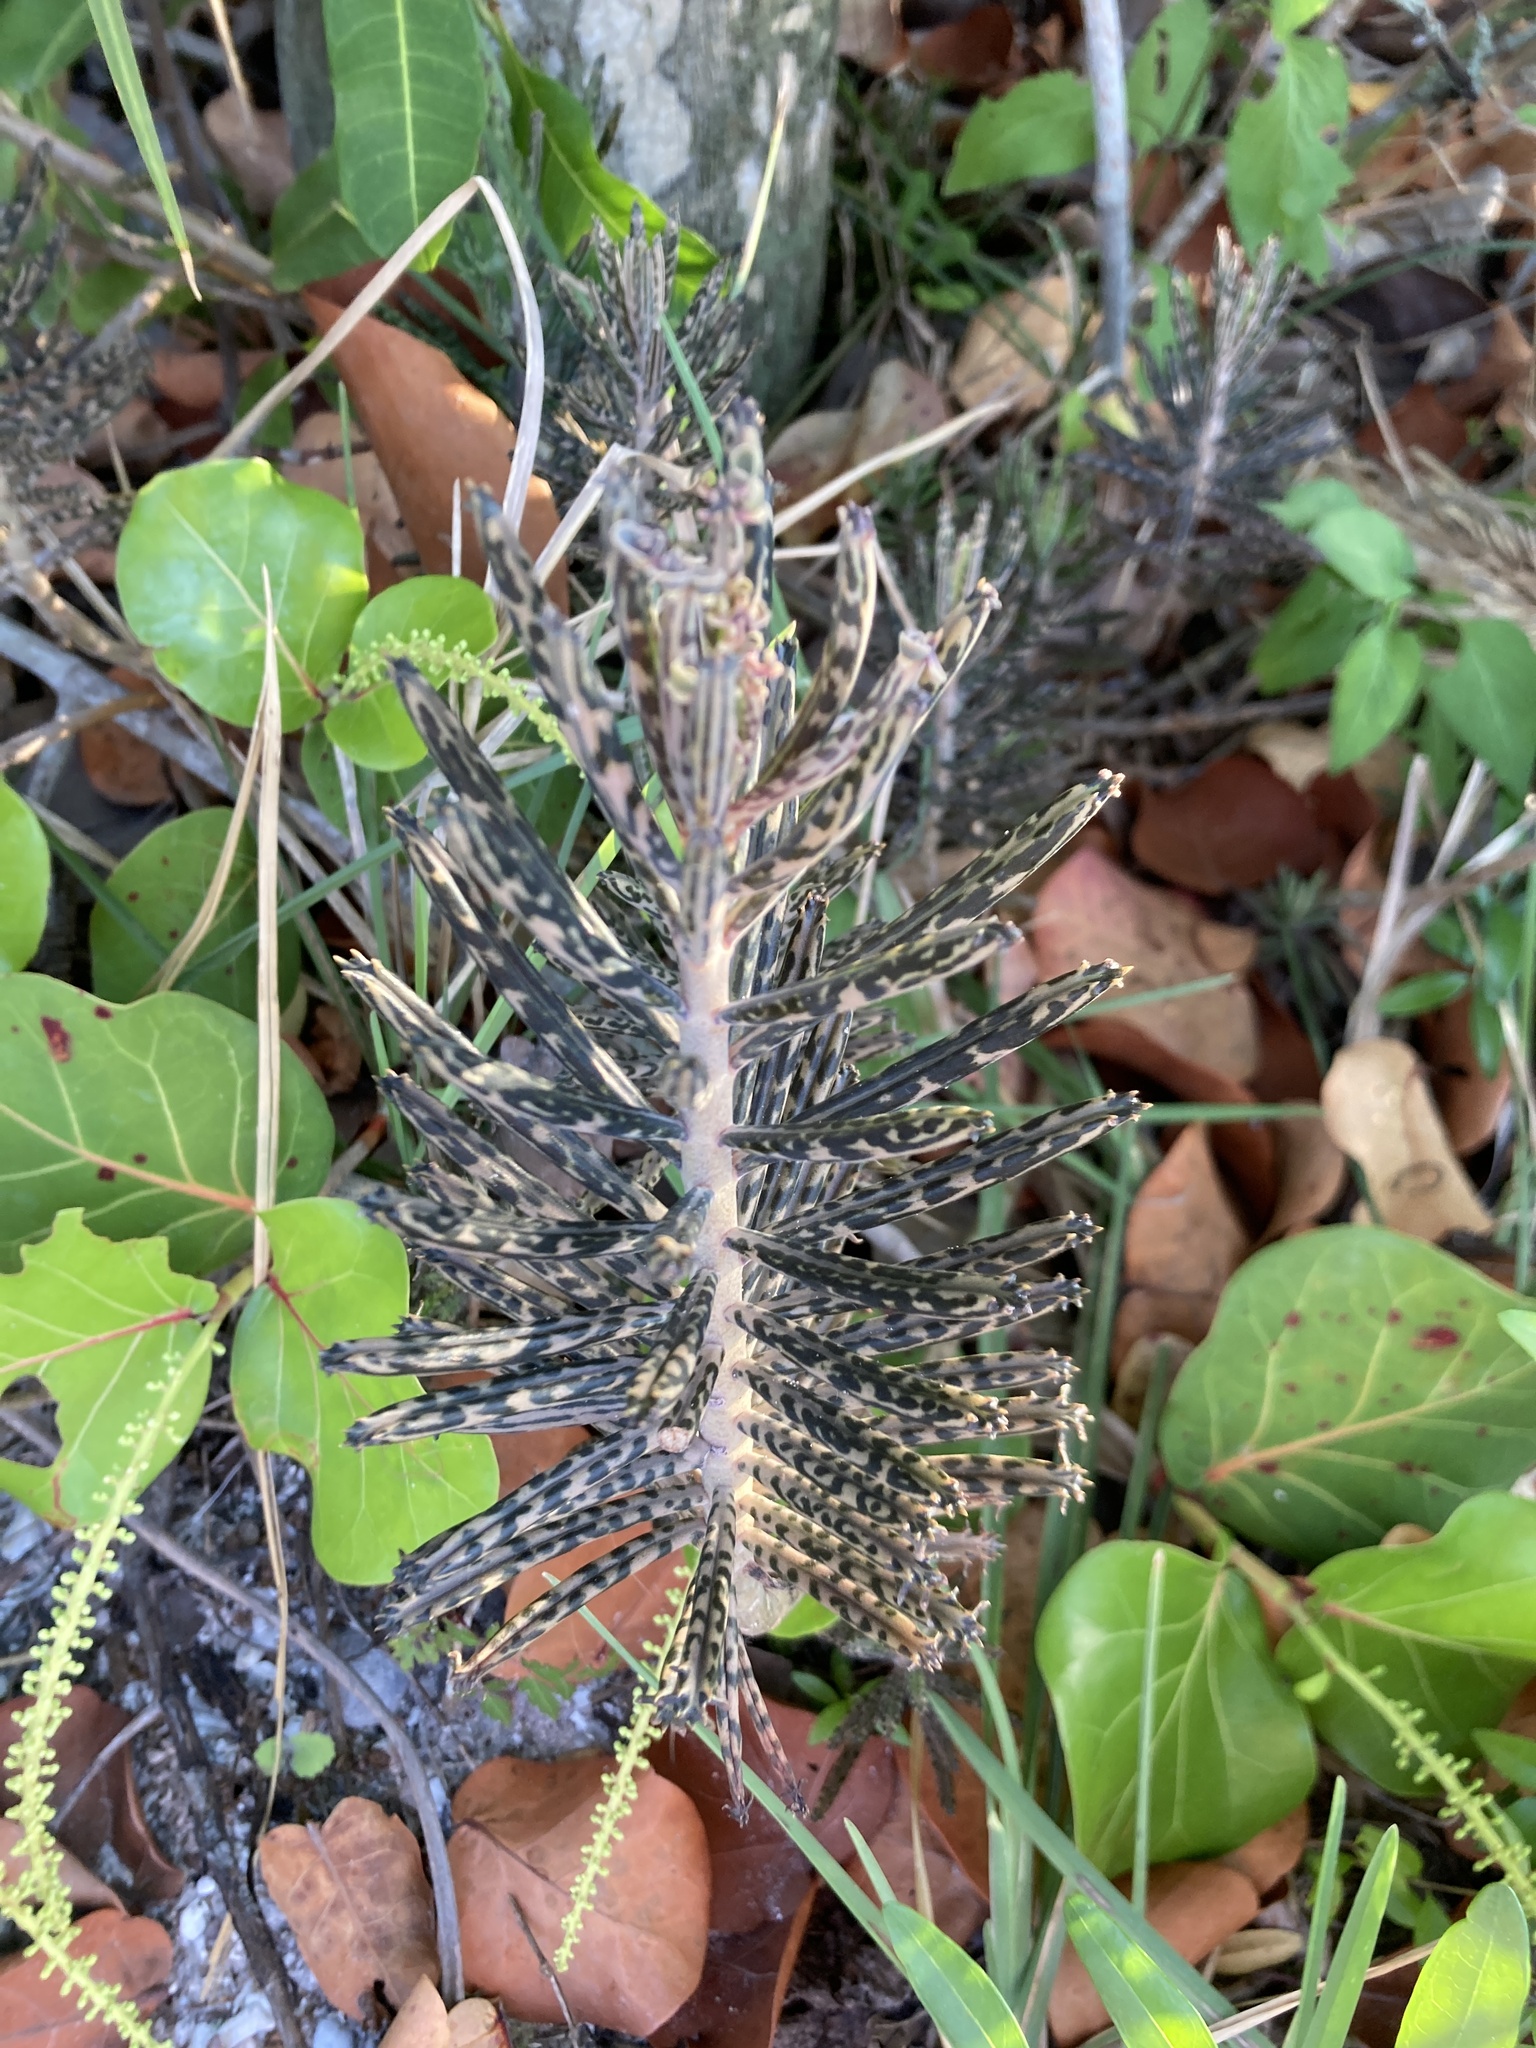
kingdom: Plantae
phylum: Tracheophyta
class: Magnoliopsida
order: Saxifragales
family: Crassulaceae
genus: Kalanchoe
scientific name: Kalanchoe delagoensis
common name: Chandelier plant
